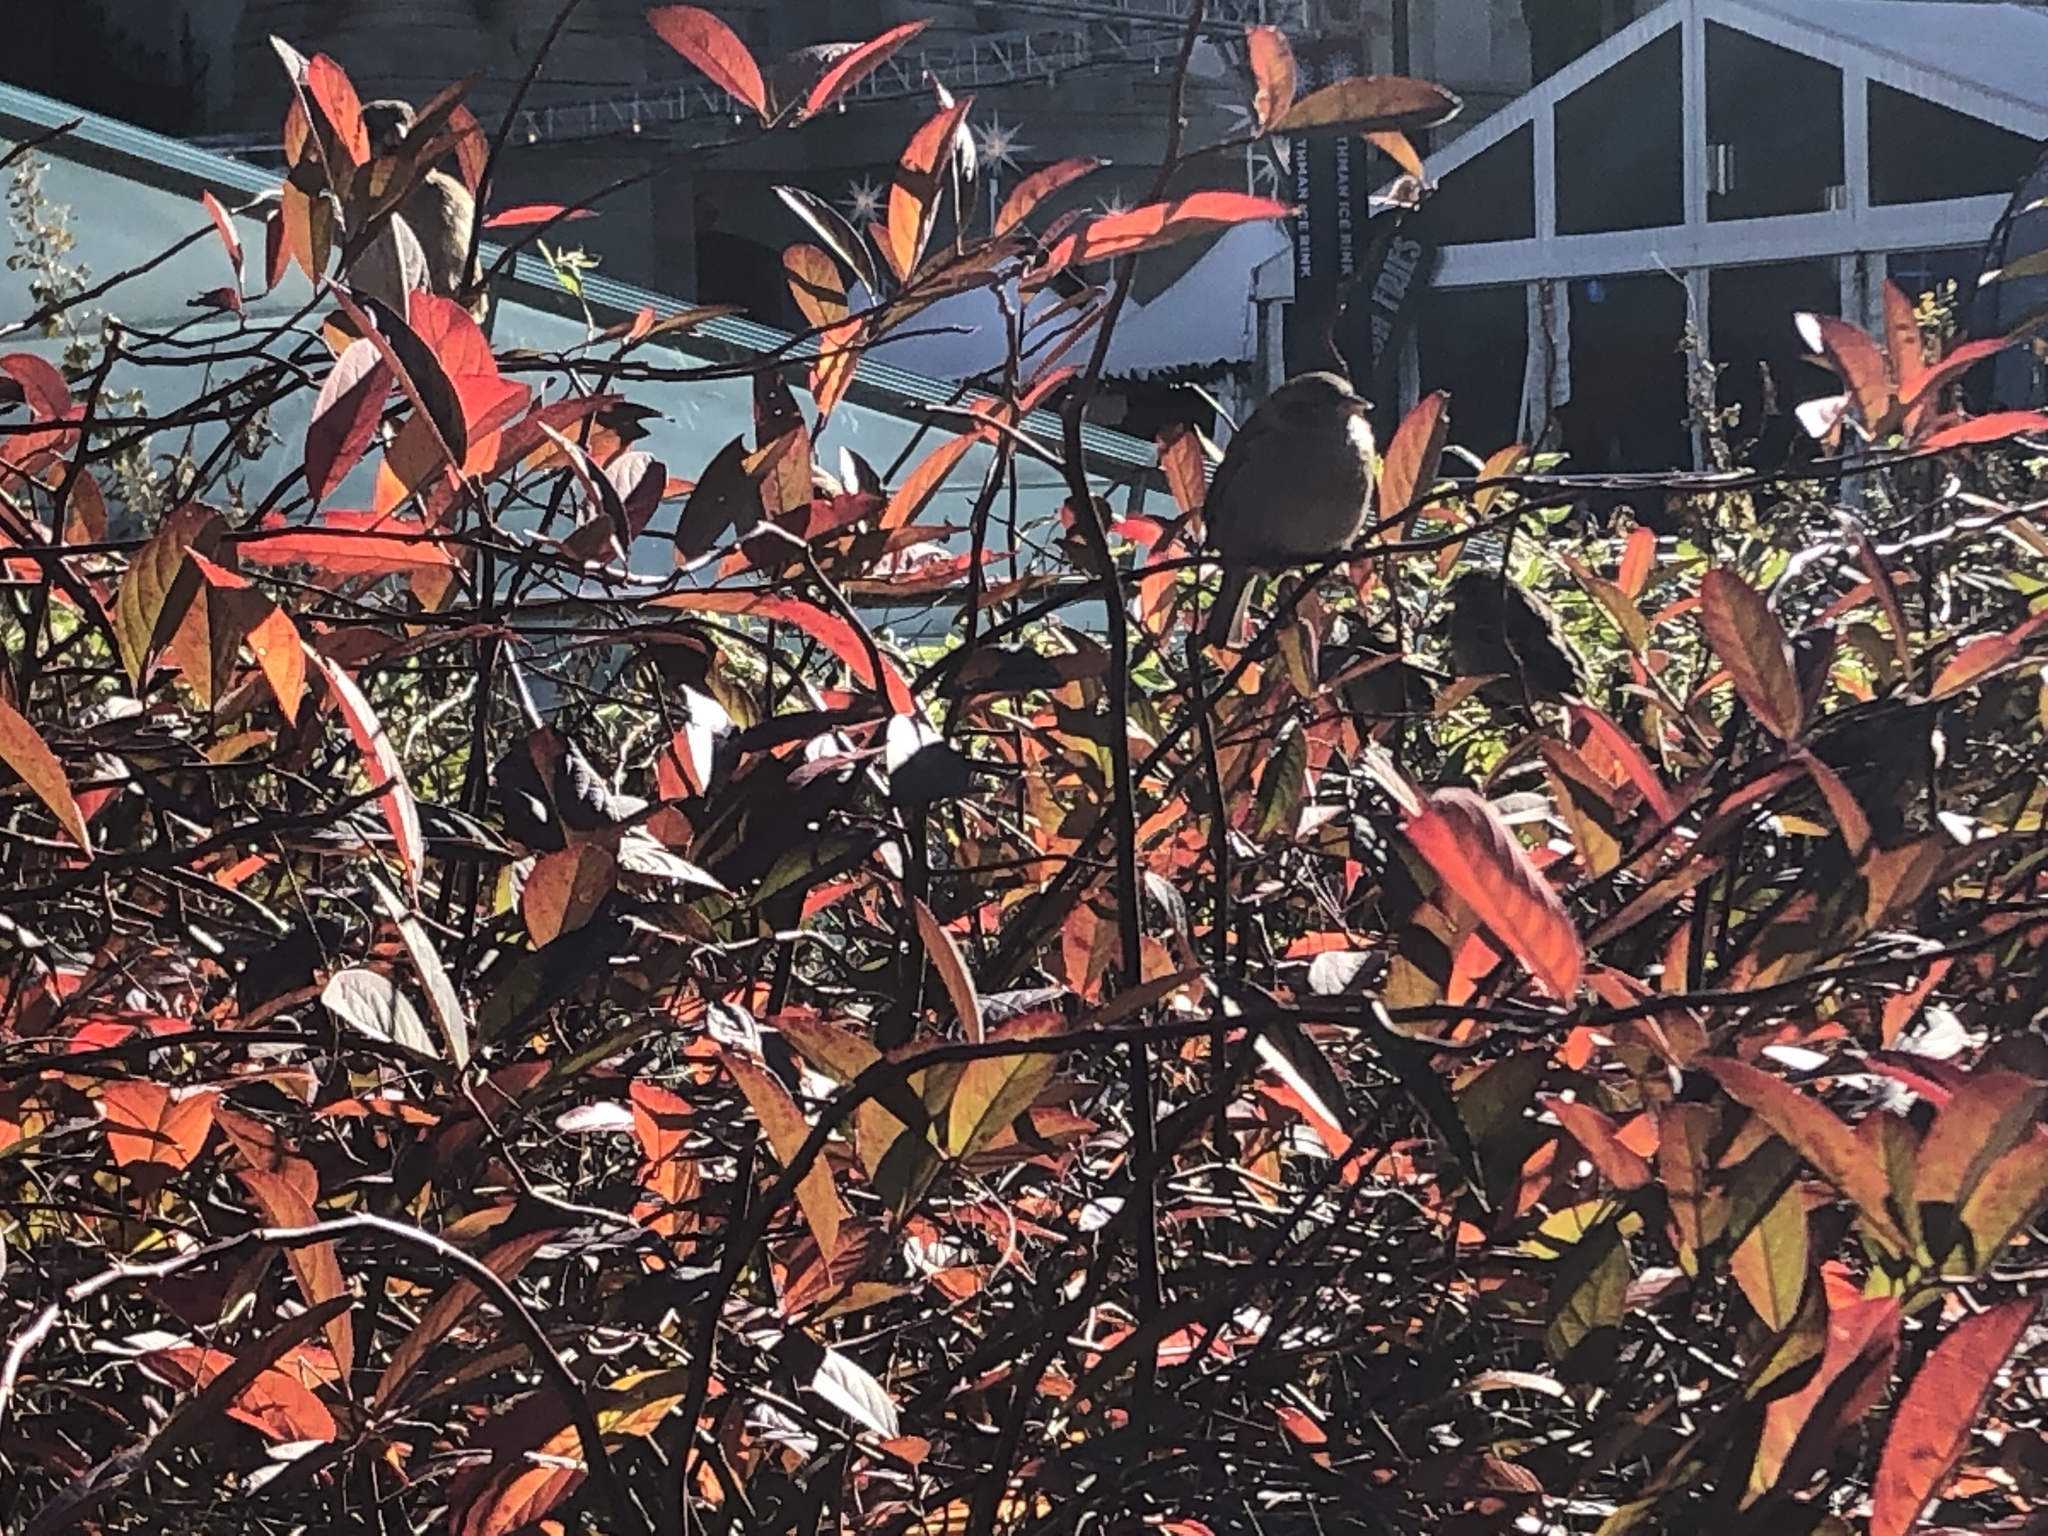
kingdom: Animalia
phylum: Chordata
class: Aves
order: Passeriformes
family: Passeridae
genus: Passer
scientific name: Passer domesticus
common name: House sparrow
